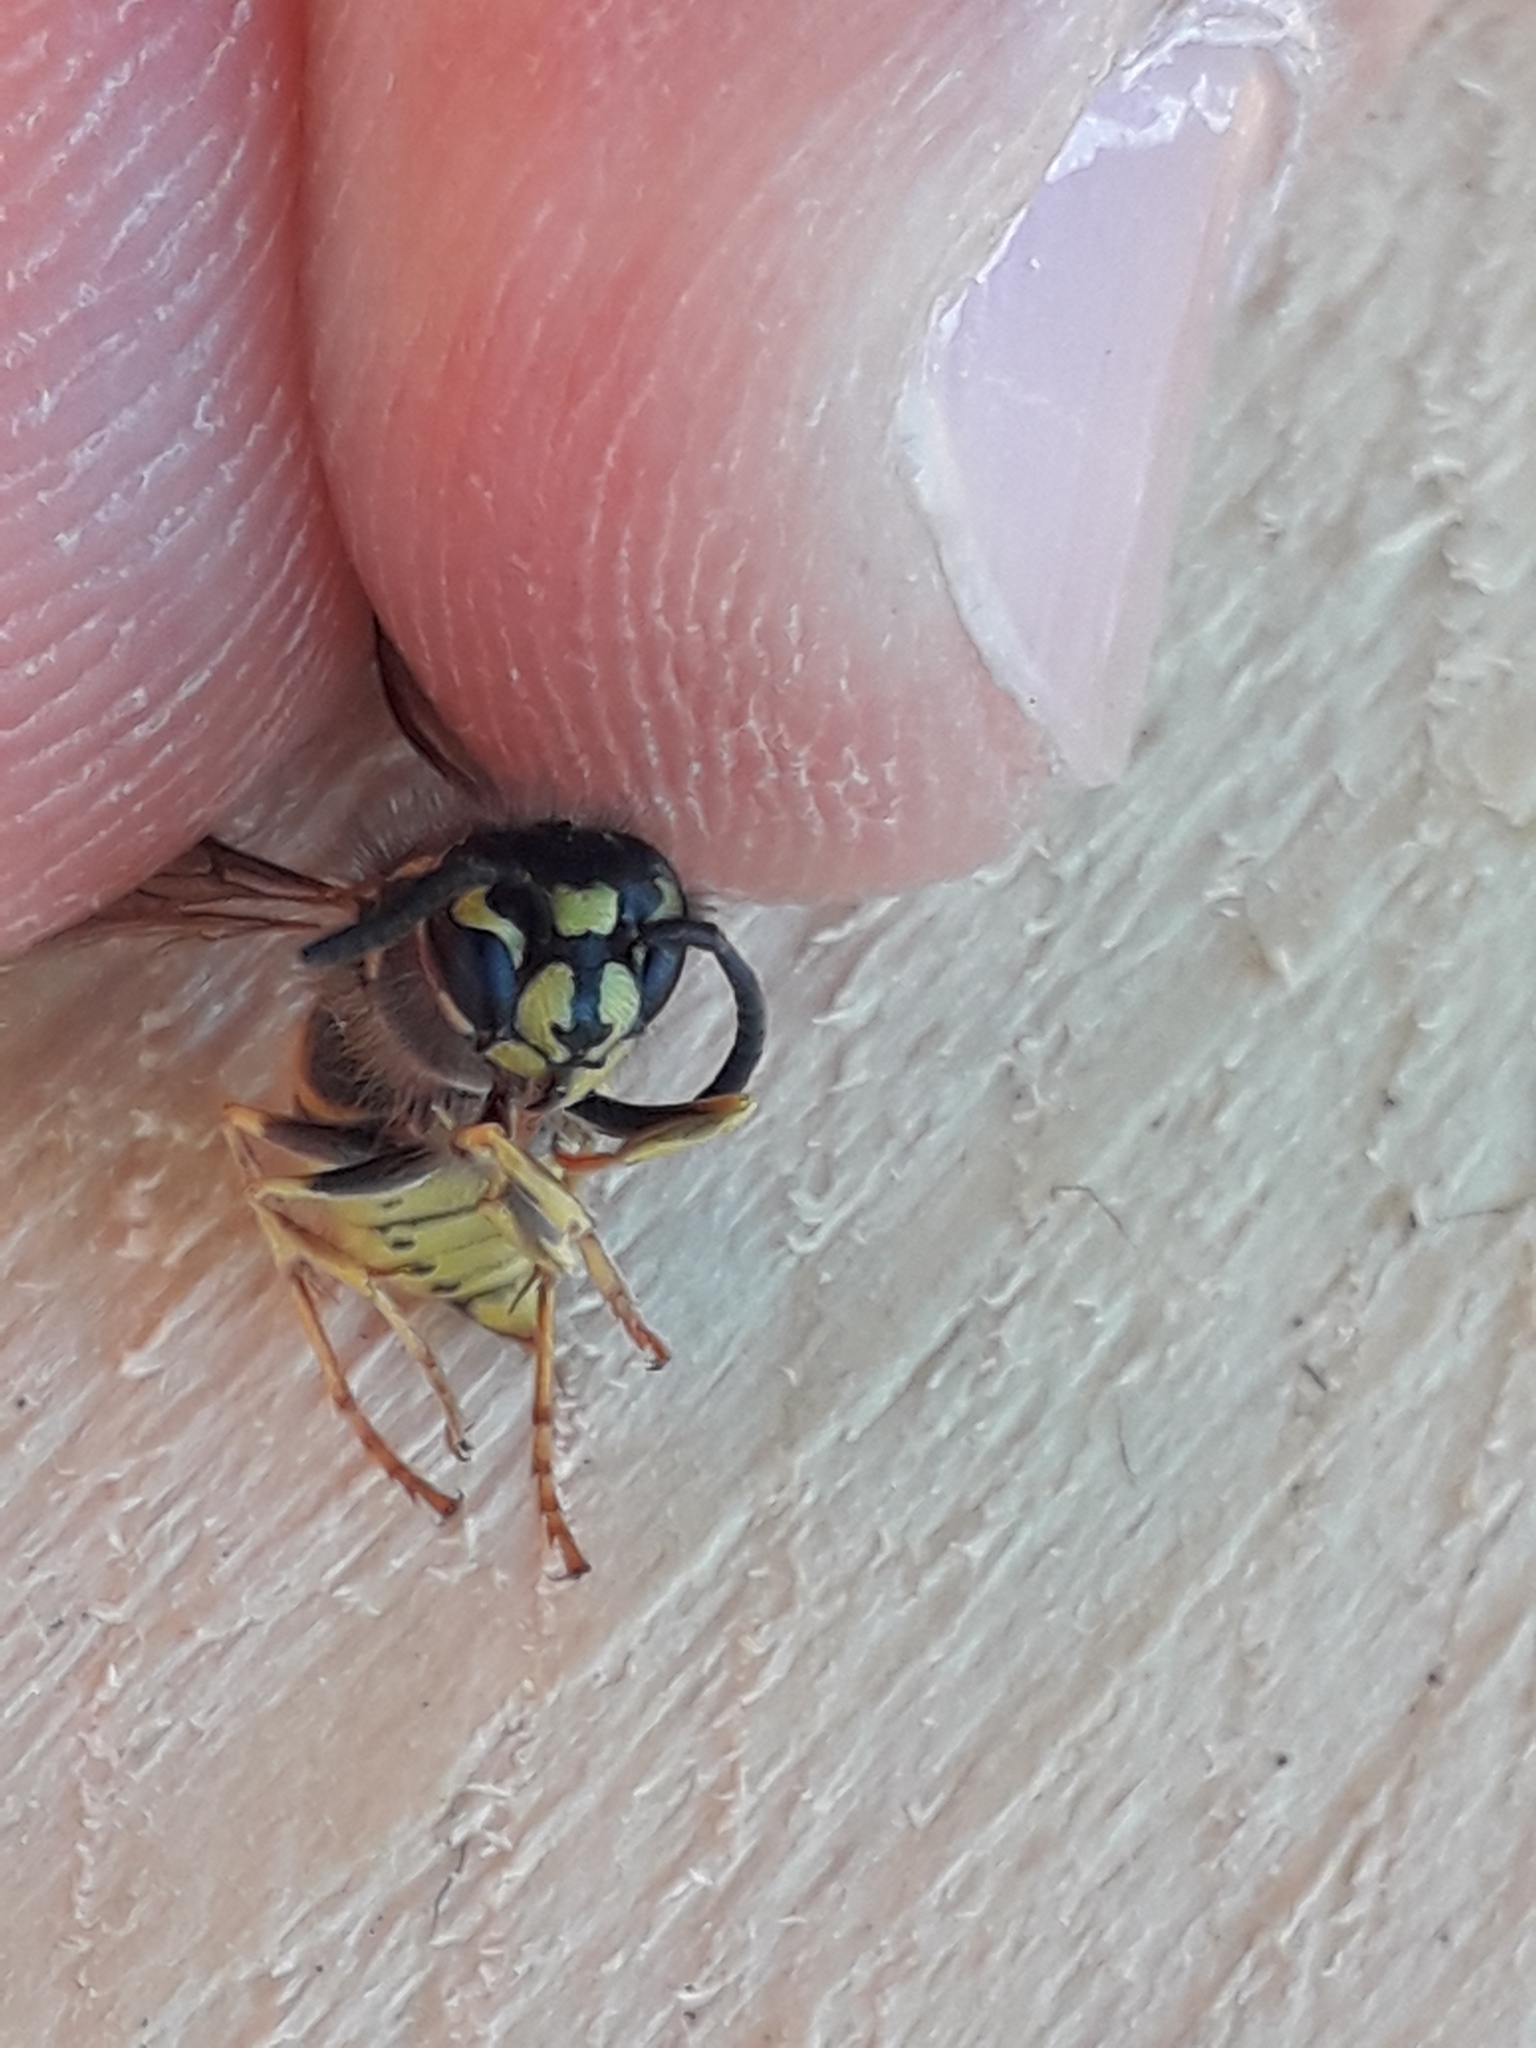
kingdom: Animalia
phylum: Arthropoda
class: Insecta
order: Hymenoptera
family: Vespidae
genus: Vespula
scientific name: Vespula vulgaris
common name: Common wasp
